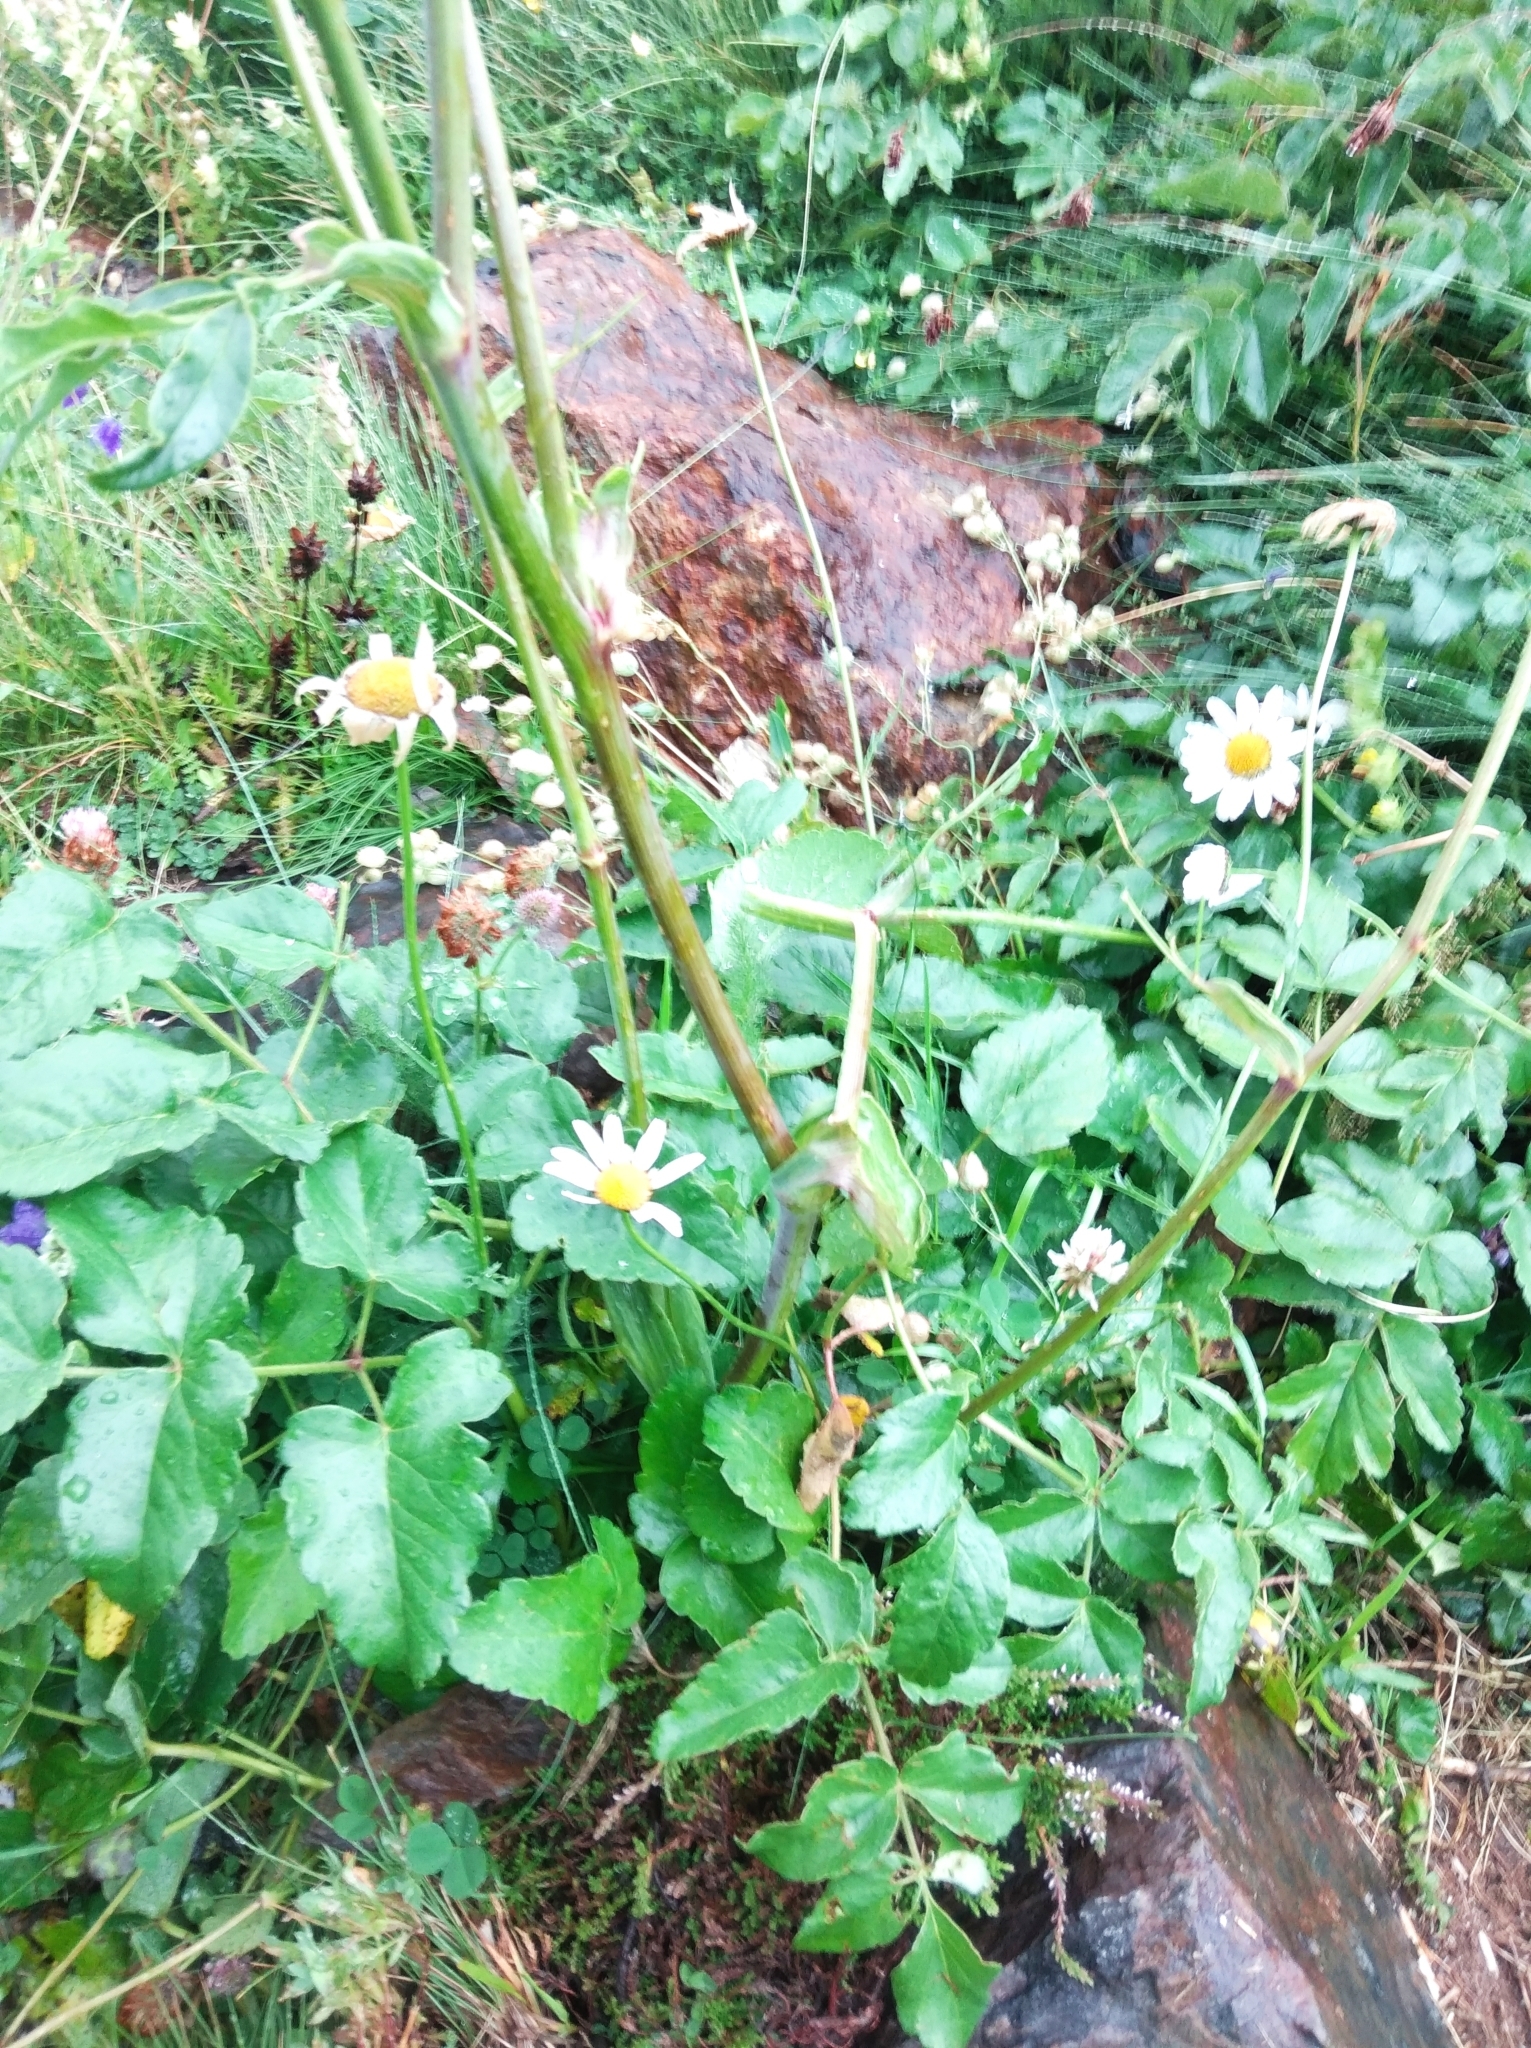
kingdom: Plantae
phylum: Tracheophyta
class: Magnoliopsida
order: Apiales
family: Apiaceae
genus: Laserpitium
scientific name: Laserpitium latifolium
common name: Broadleaf sermountain
